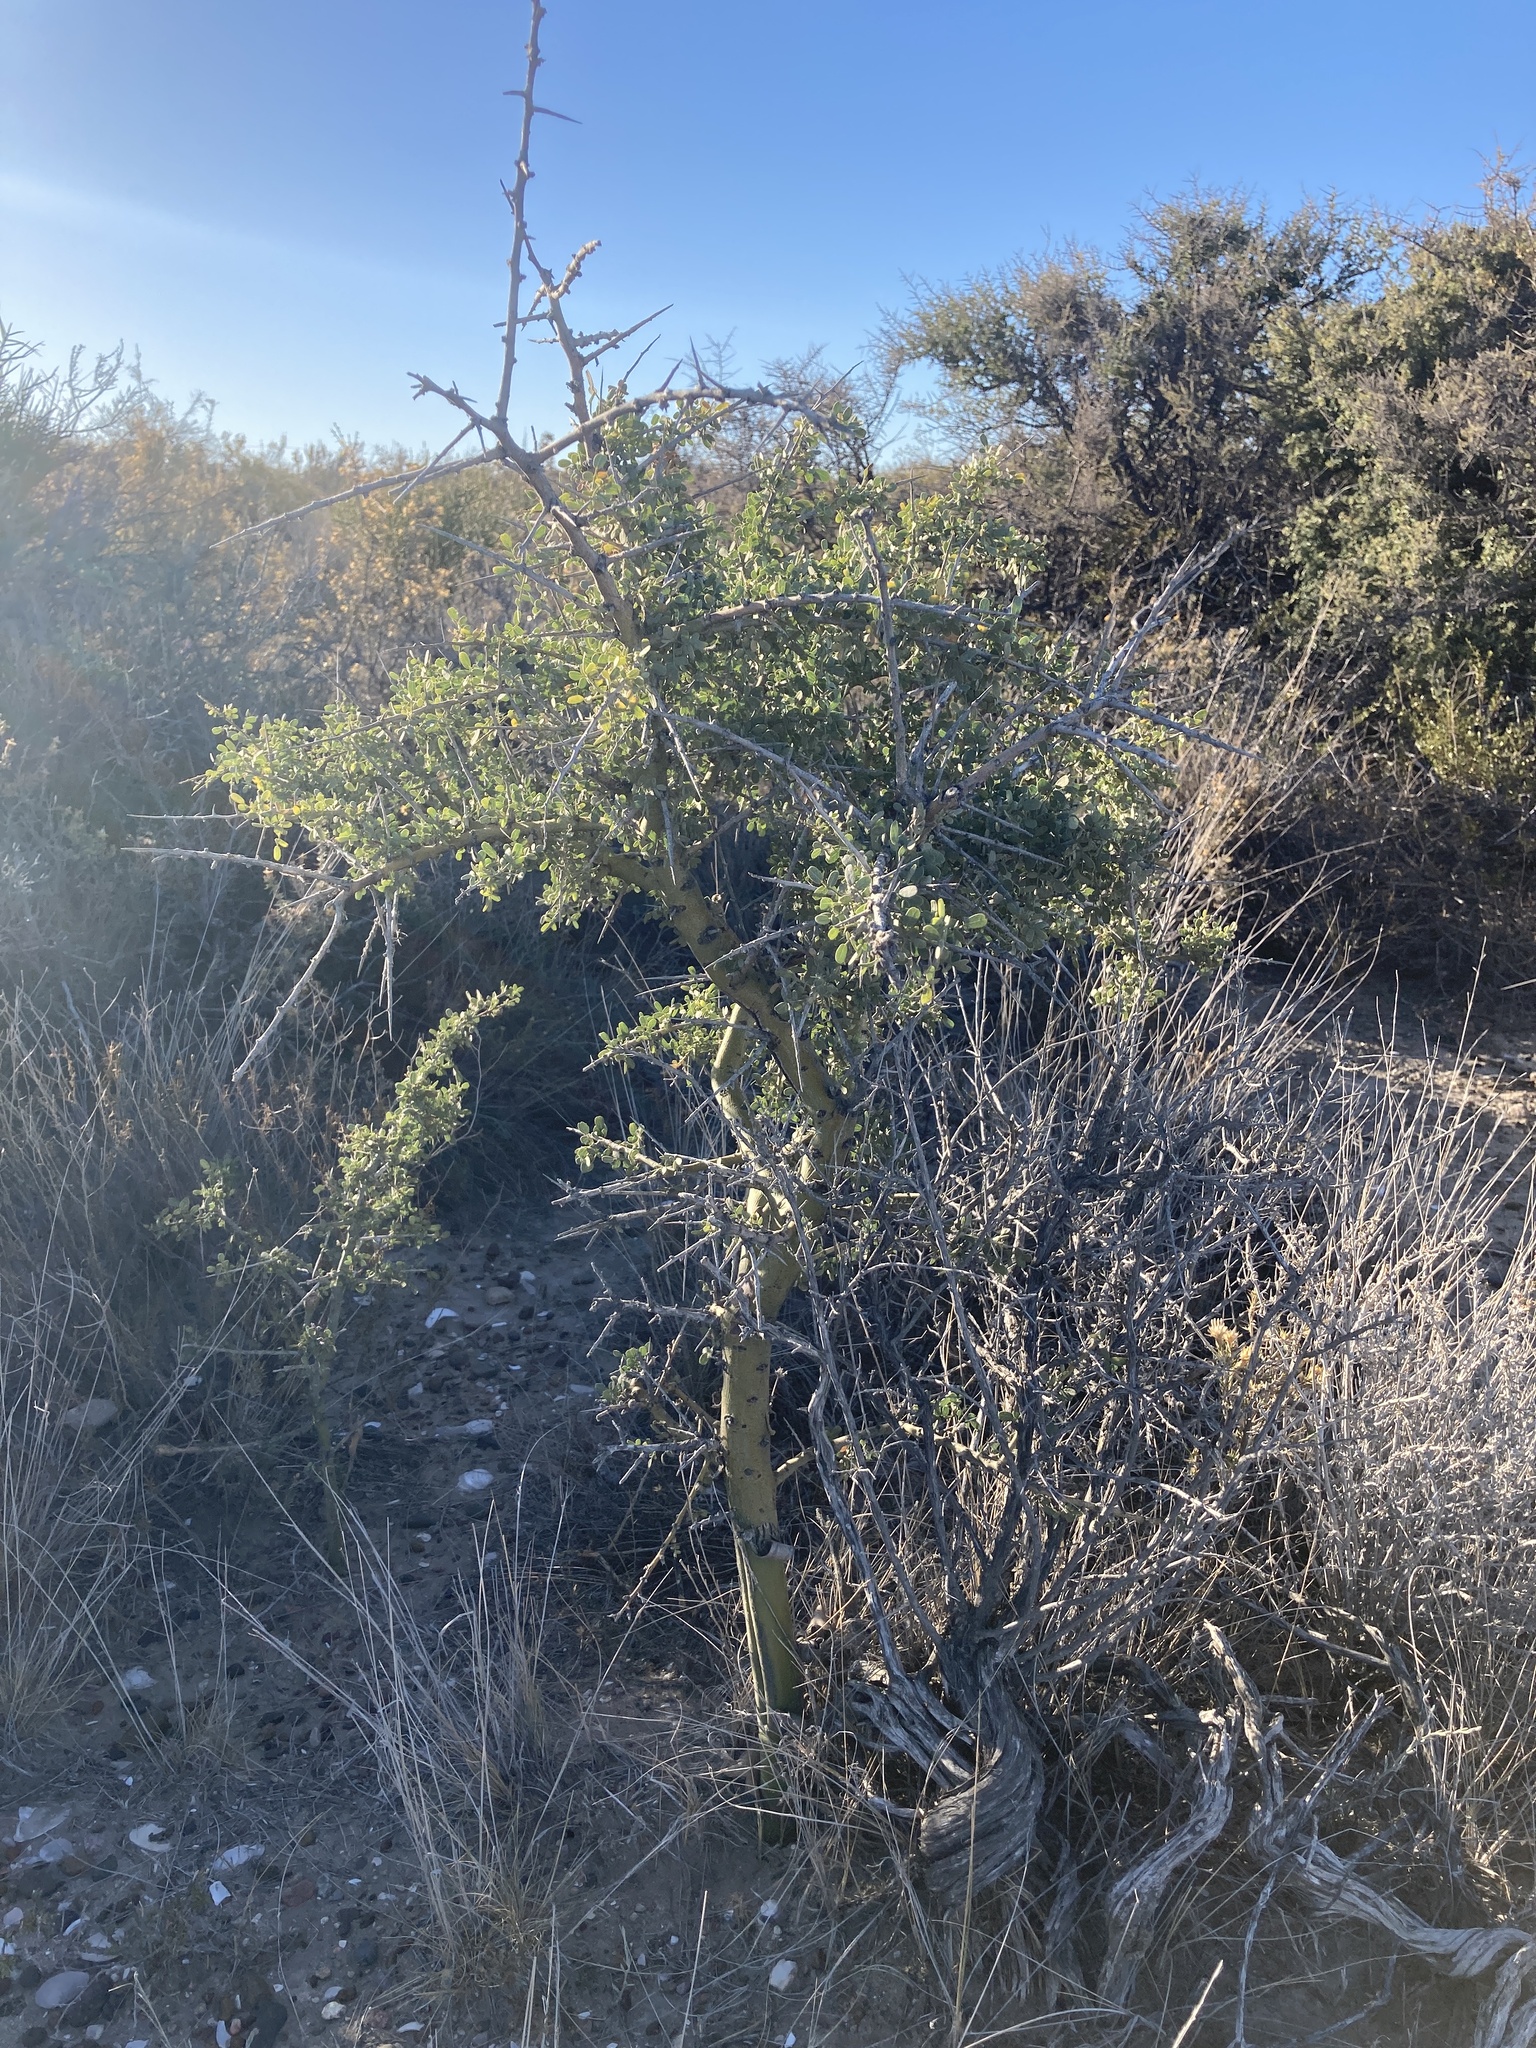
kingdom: Plantae
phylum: Tracheophyta
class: Magnoliopsida
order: Fabales
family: Fabaceae
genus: Geoffroea
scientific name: Geoffroea decorticans
